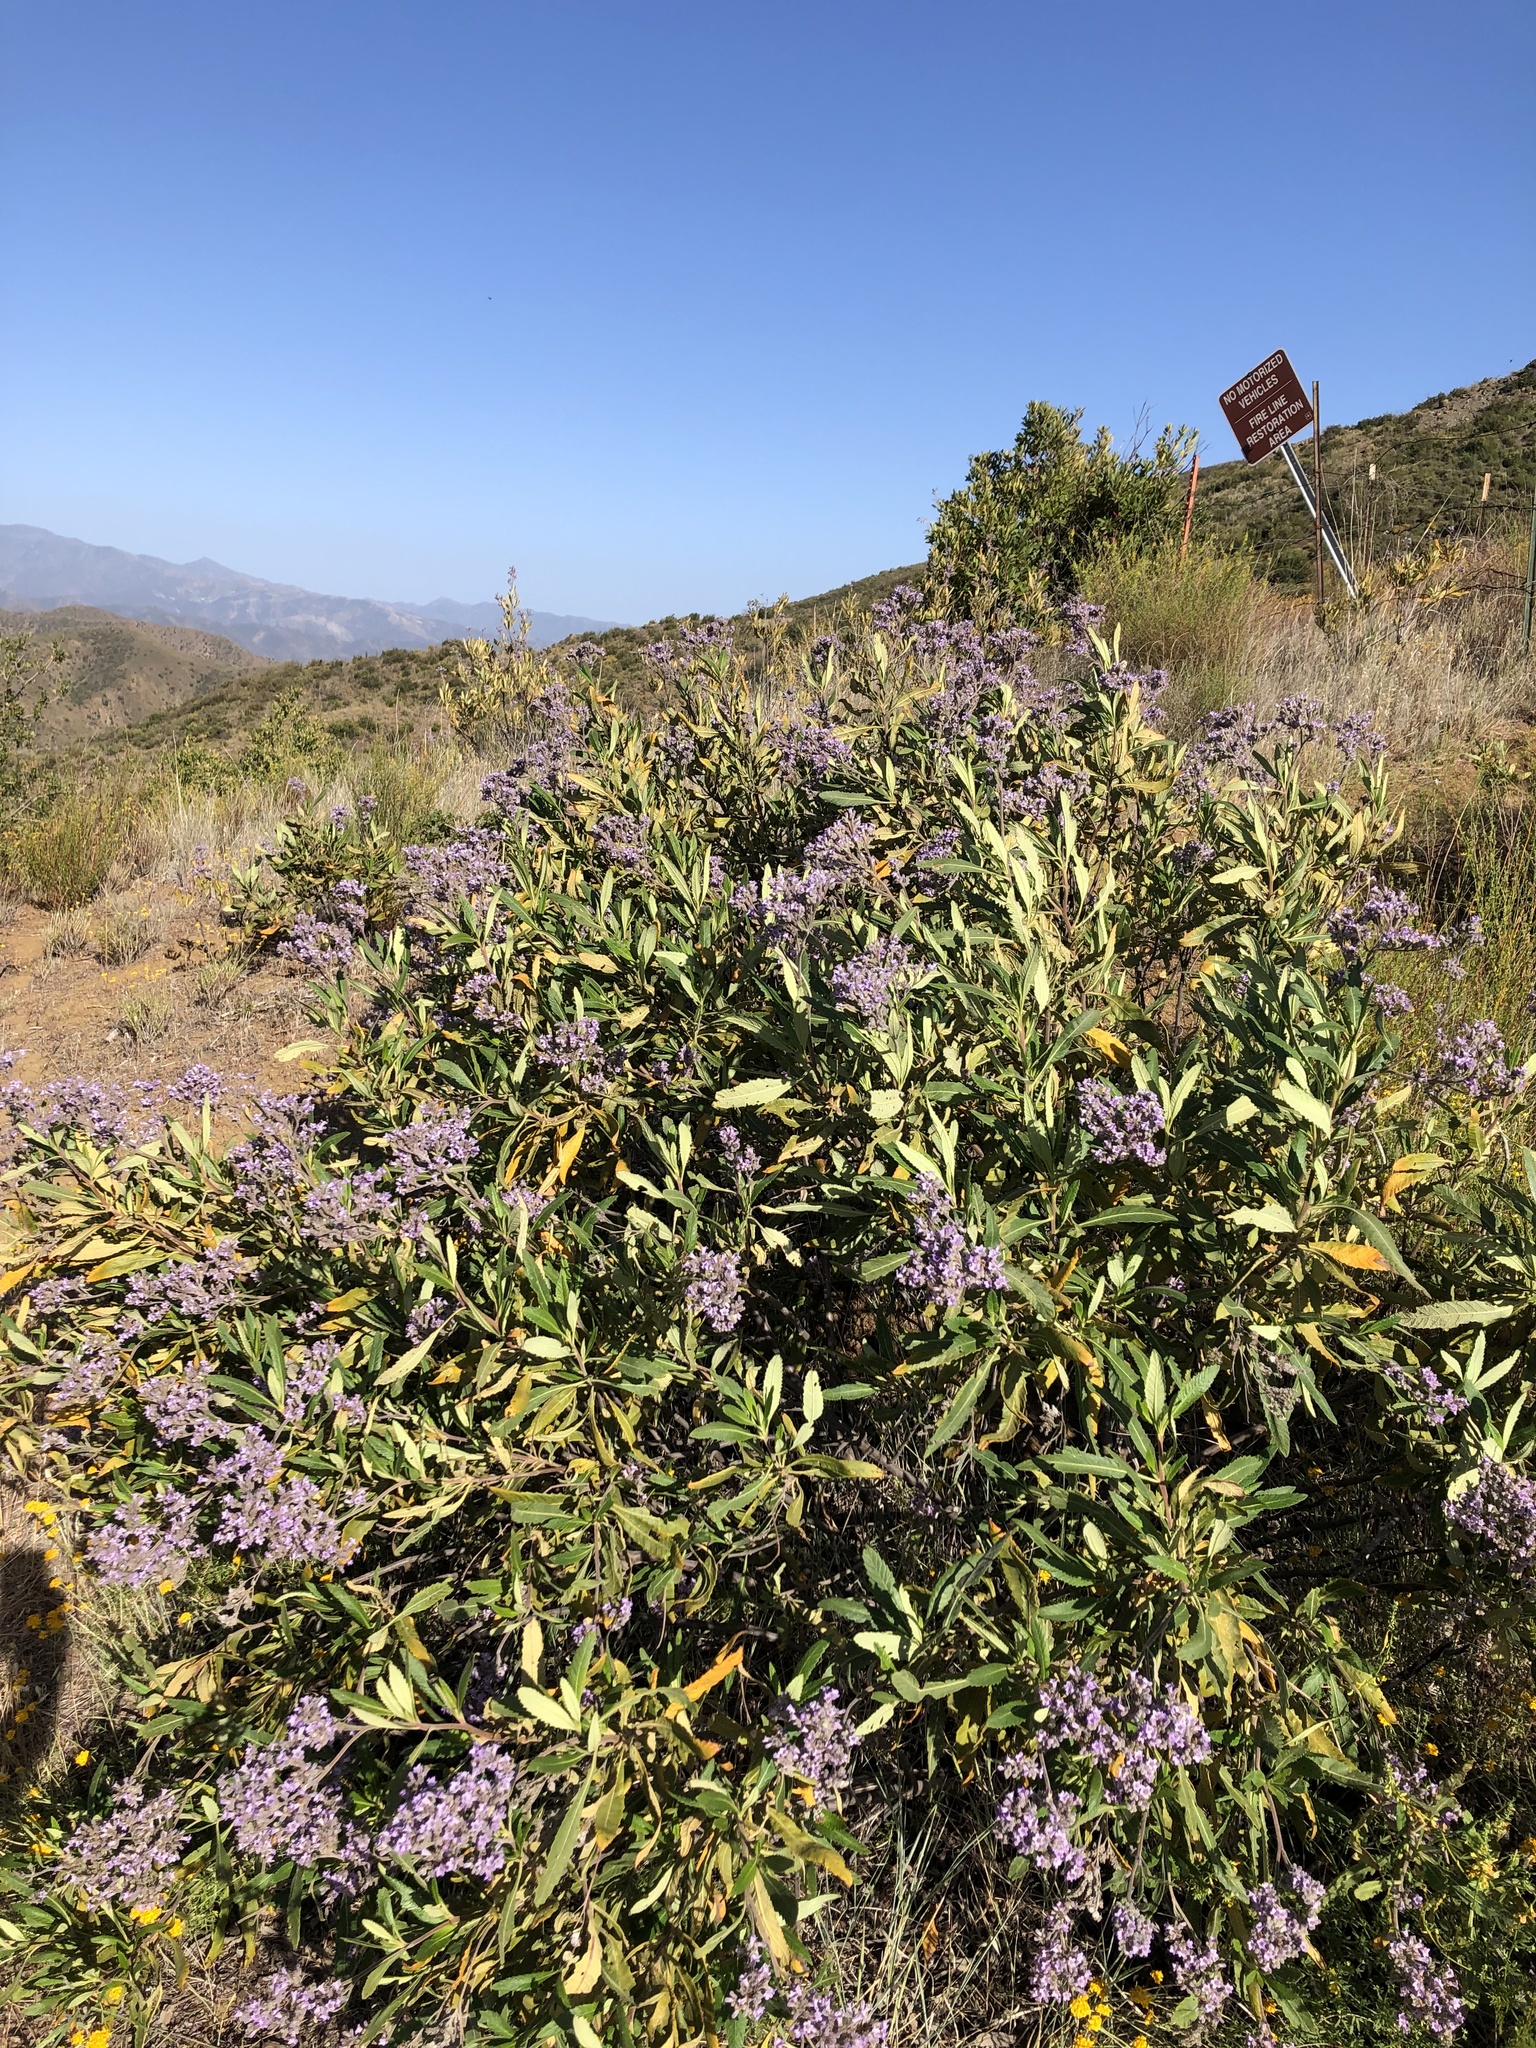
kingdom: Plantae
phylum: Tracheophyta
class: Magnoliopsida
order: Boraginales
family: Namaceae
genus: Eriodictyon
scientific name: Eriodictyon crassifolium
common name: Thick-leaf yerba-santa
